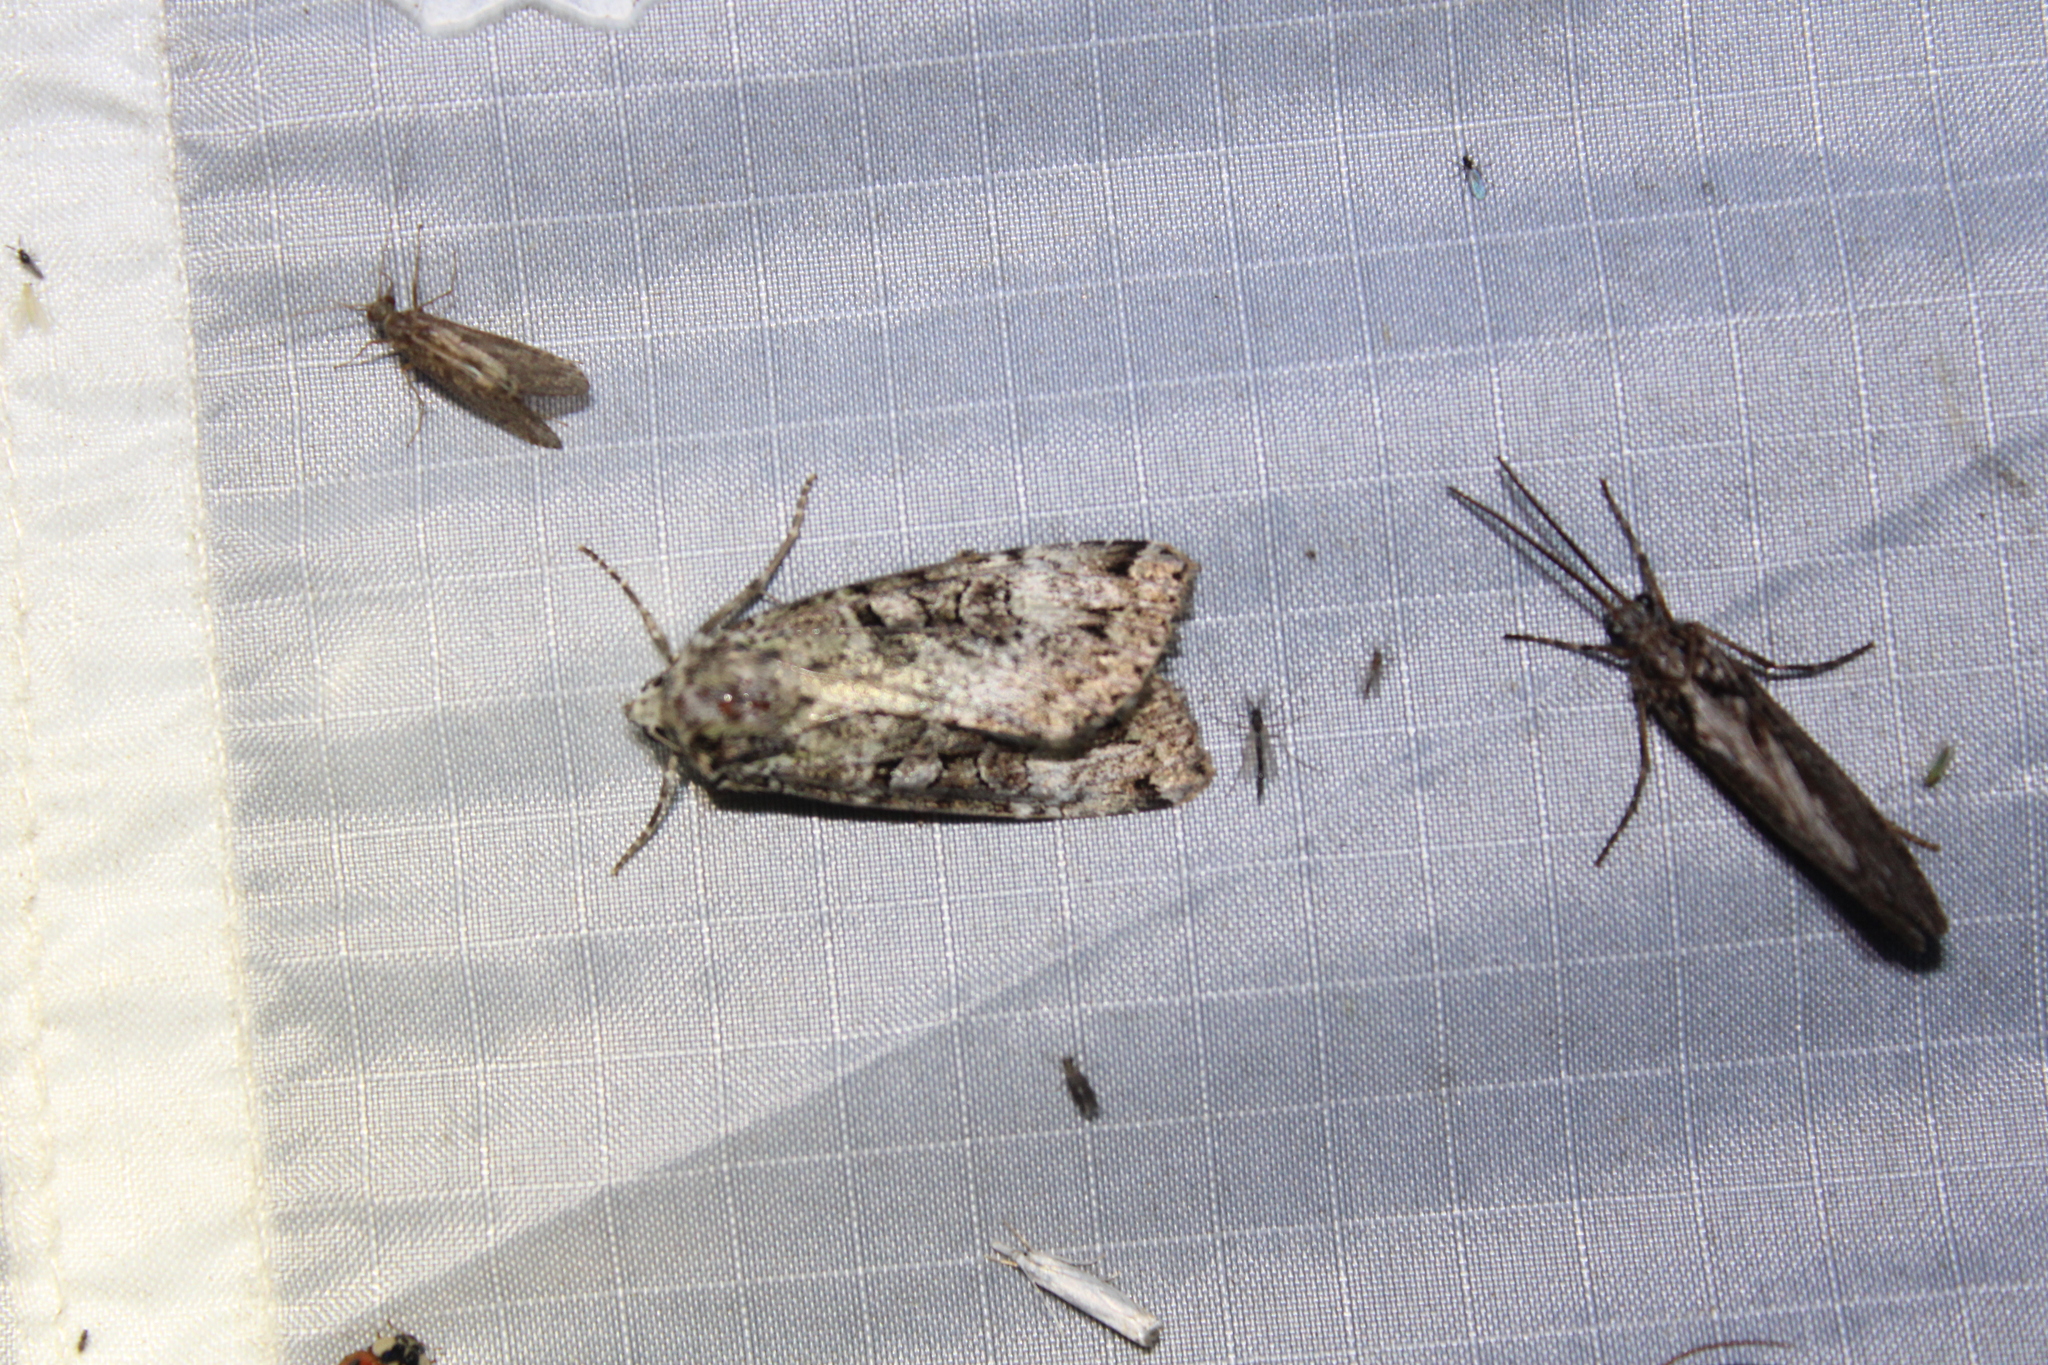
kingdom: Animalia
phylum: Arthropoda
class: Insecta
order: Lepidoptera
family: Noctuidae
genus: Anaplectoides
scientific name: Anaplectoides prasina
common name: Green arches
